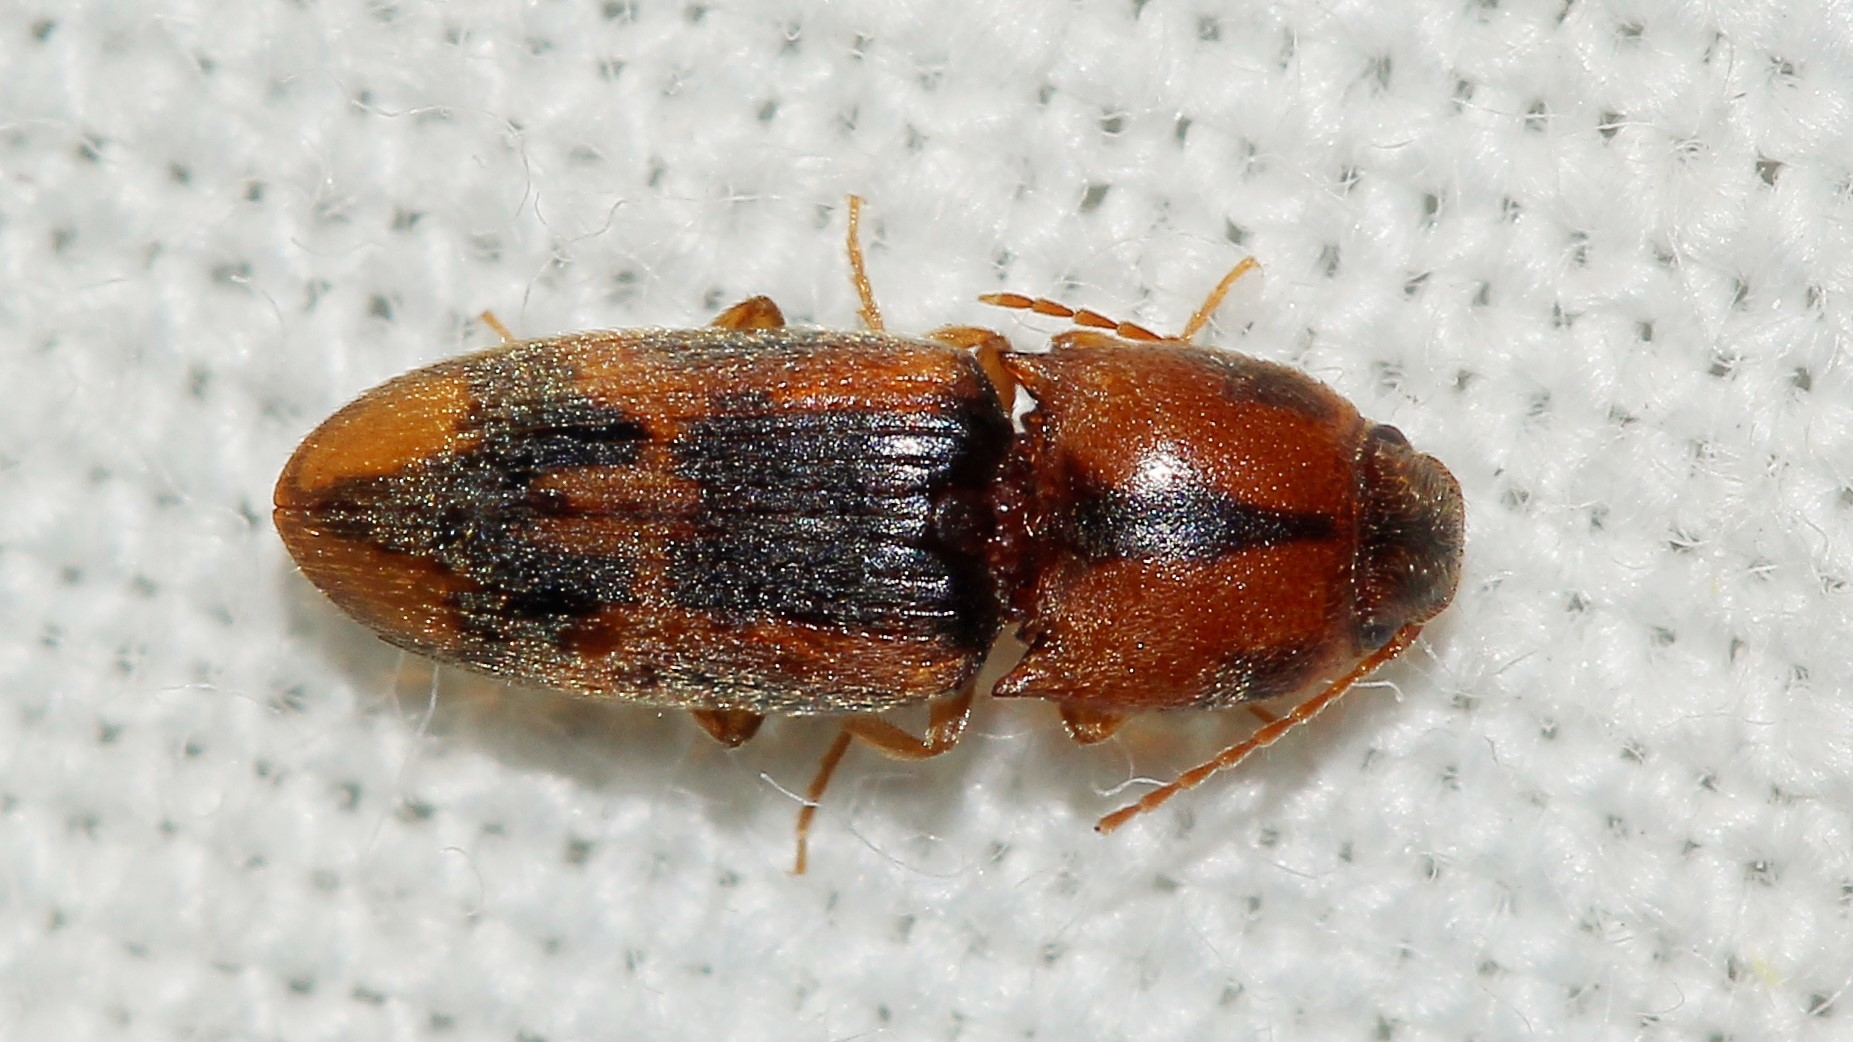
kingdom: Animalia
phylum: Arthropoda
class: Insecta
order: Coleoptera
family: Elateridae
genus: Aeolosomus
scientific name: Aeolosomus rossii
